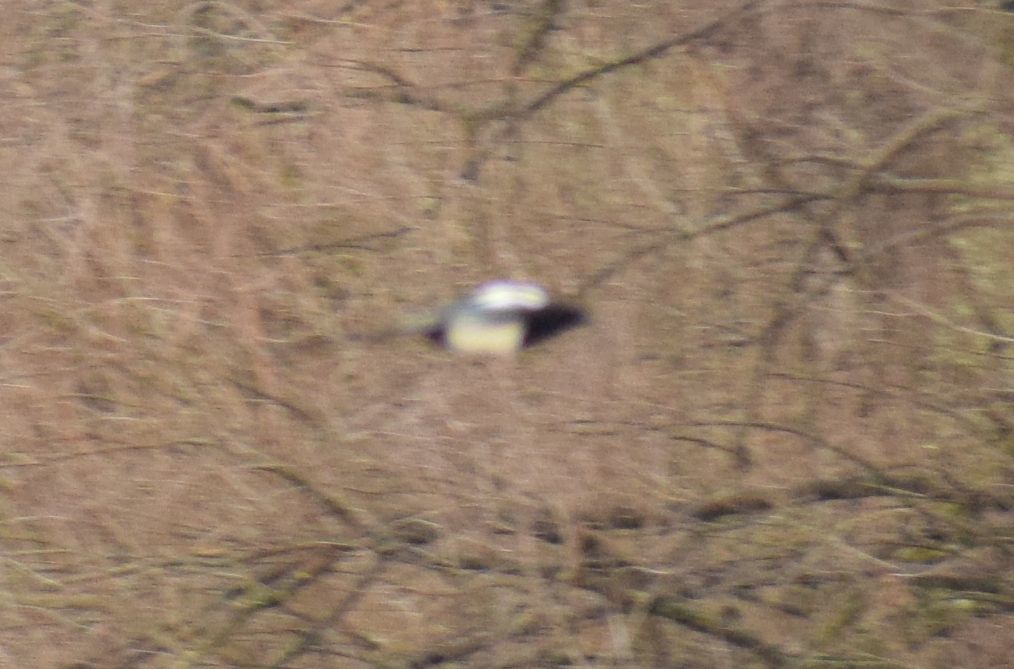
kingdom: Animalia
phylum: Chordata
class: Aves
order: Passeriformes
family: Corvidae
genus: Pica
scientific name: Pica pica
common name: Eurasian magpie
